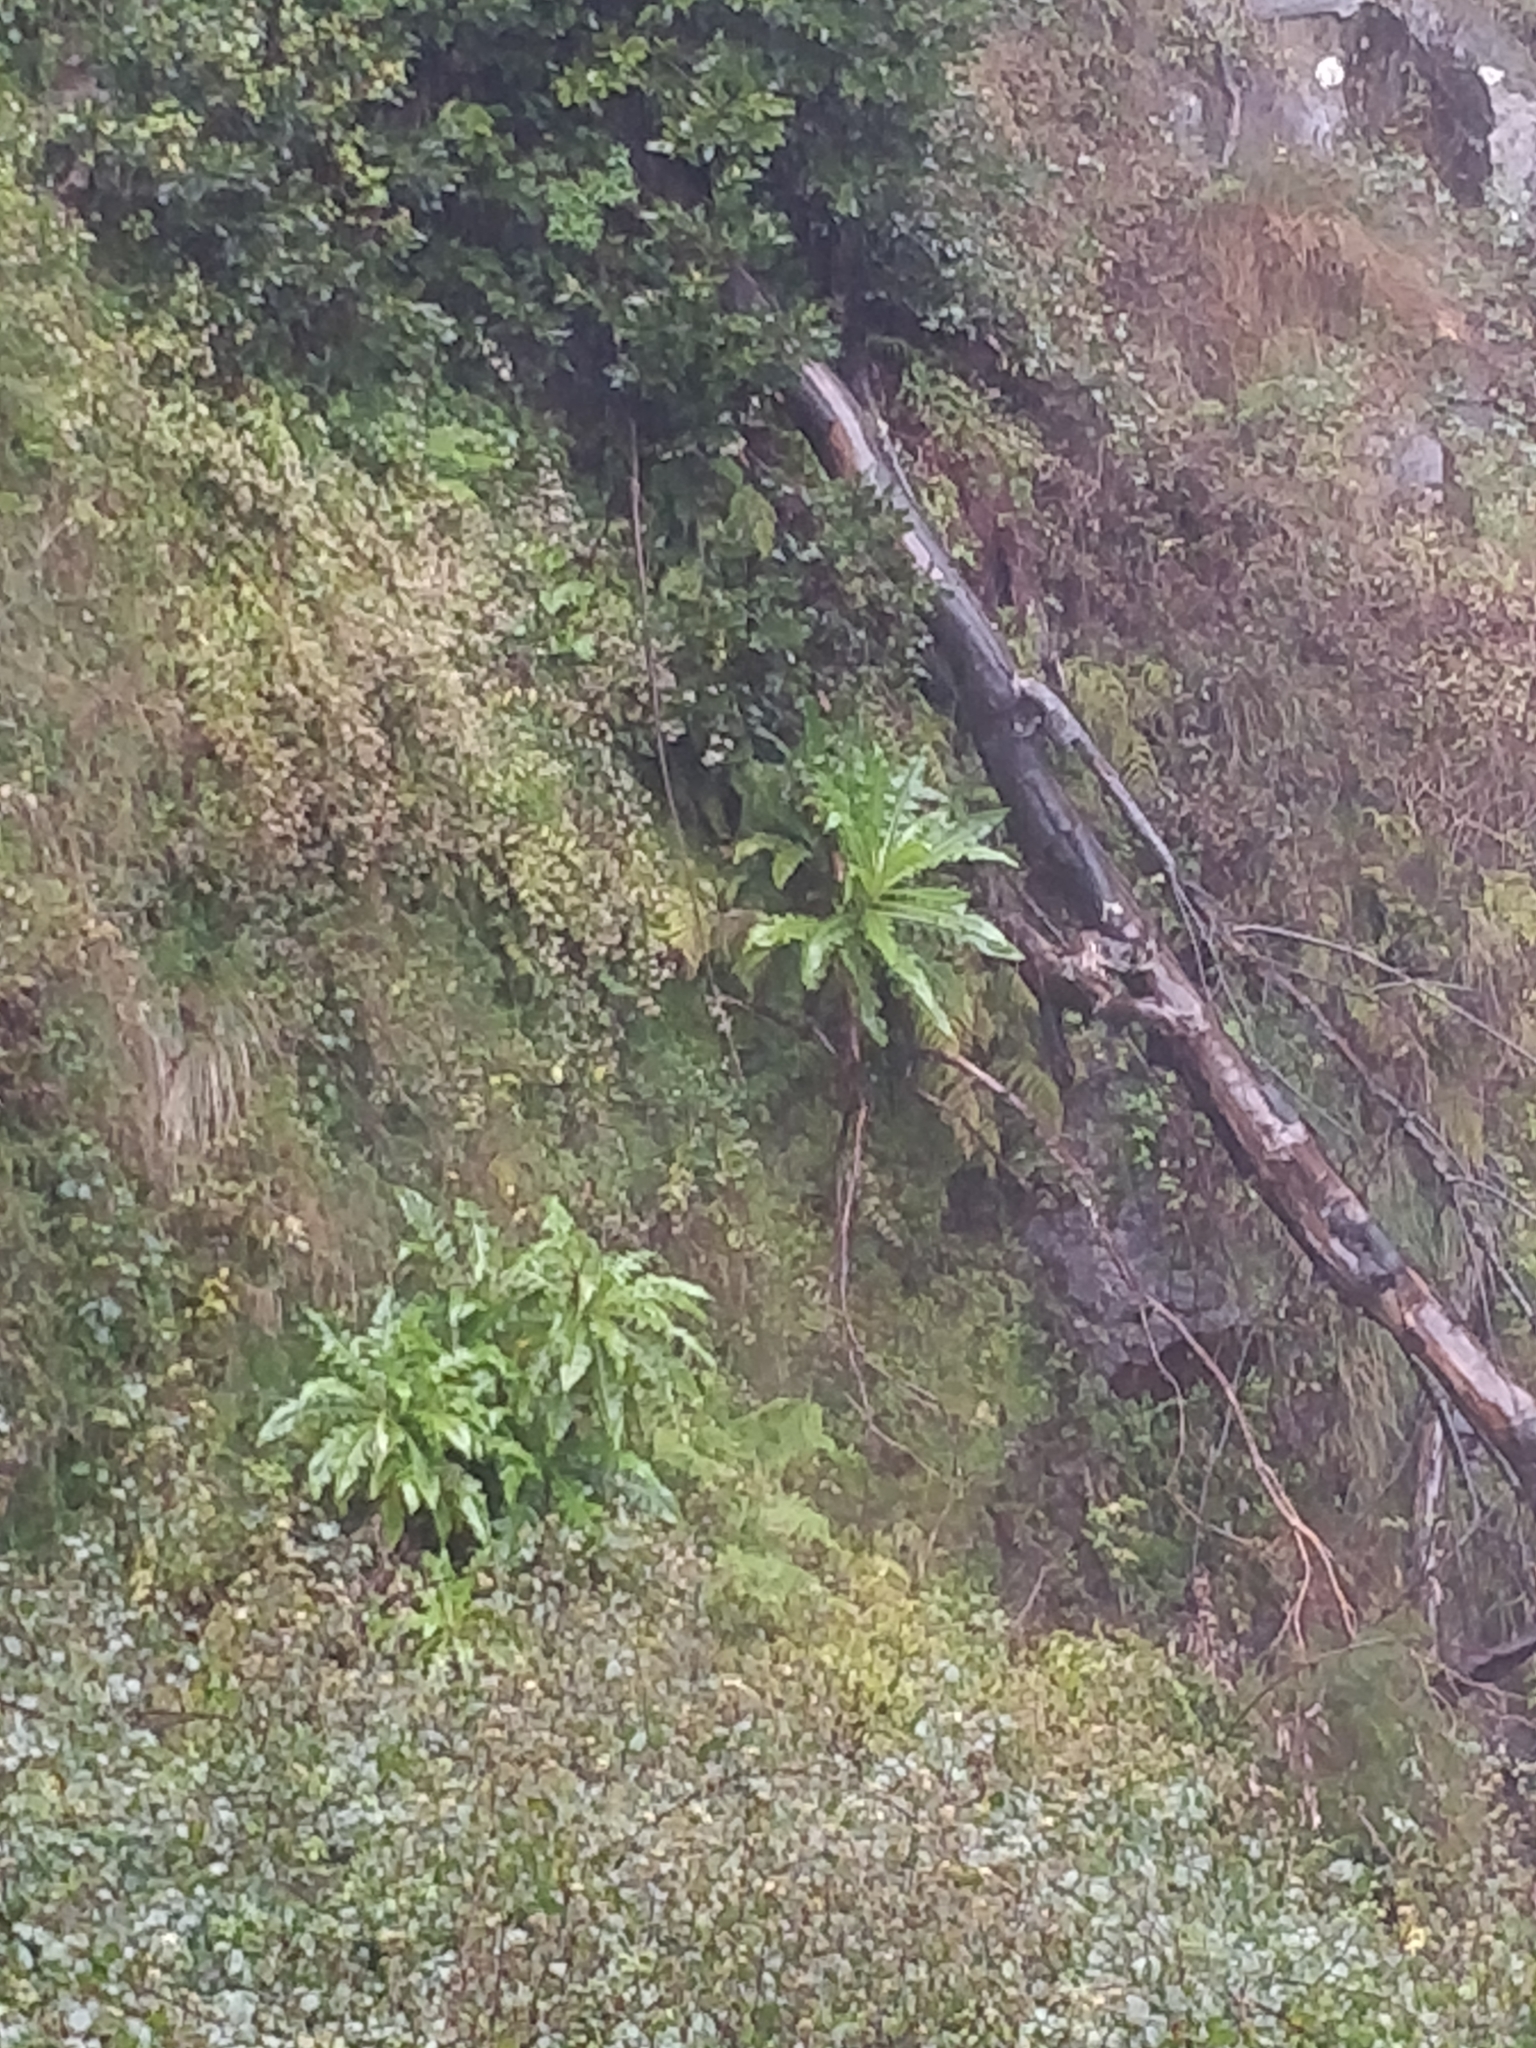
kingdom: Plantae
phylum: Tracheophyta
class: Magnoliopsida
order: Asterales
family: Asteraceae
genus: Sonchus
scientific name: Sonchus fruticosus
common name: Shrubby sow-thistle
